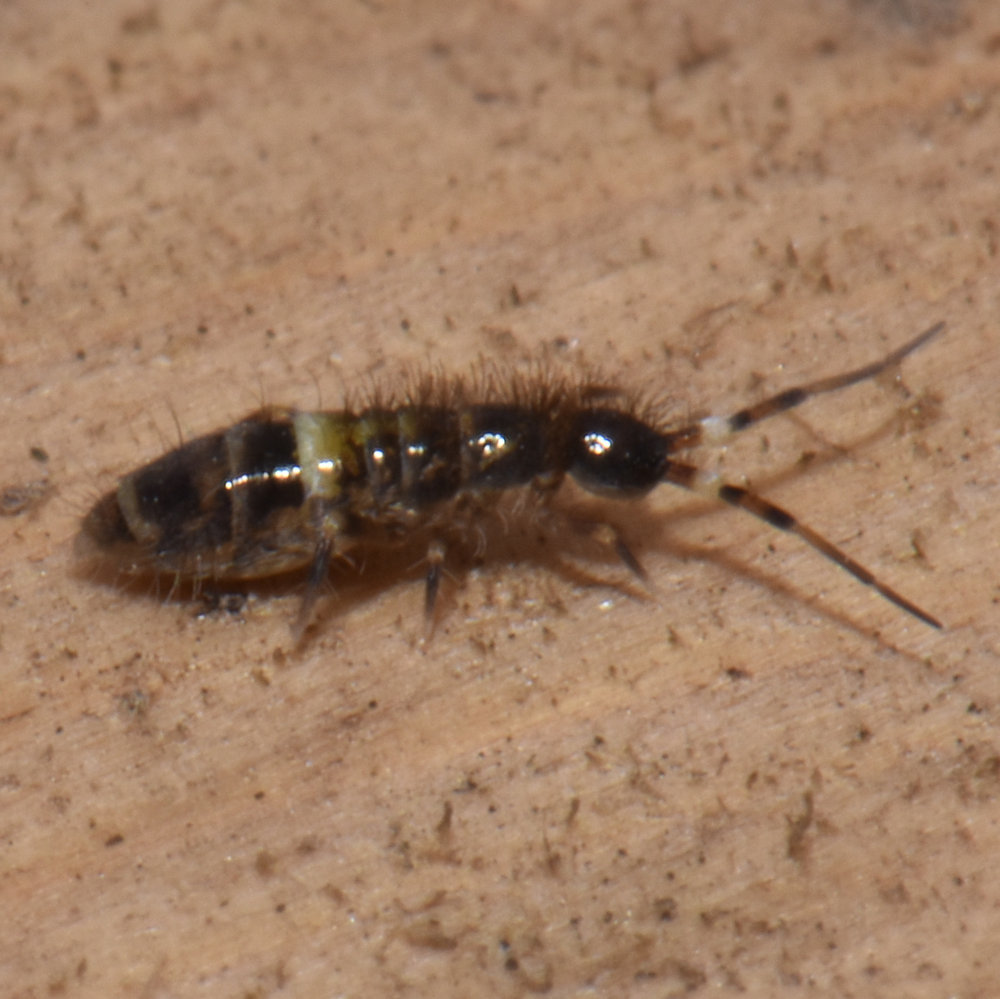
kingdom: Animalia
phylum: Arthropoda
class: Collembola
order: Entomobryomorpha
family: Orchesellidae
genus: Orchesella
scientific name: Orchesella cincta
